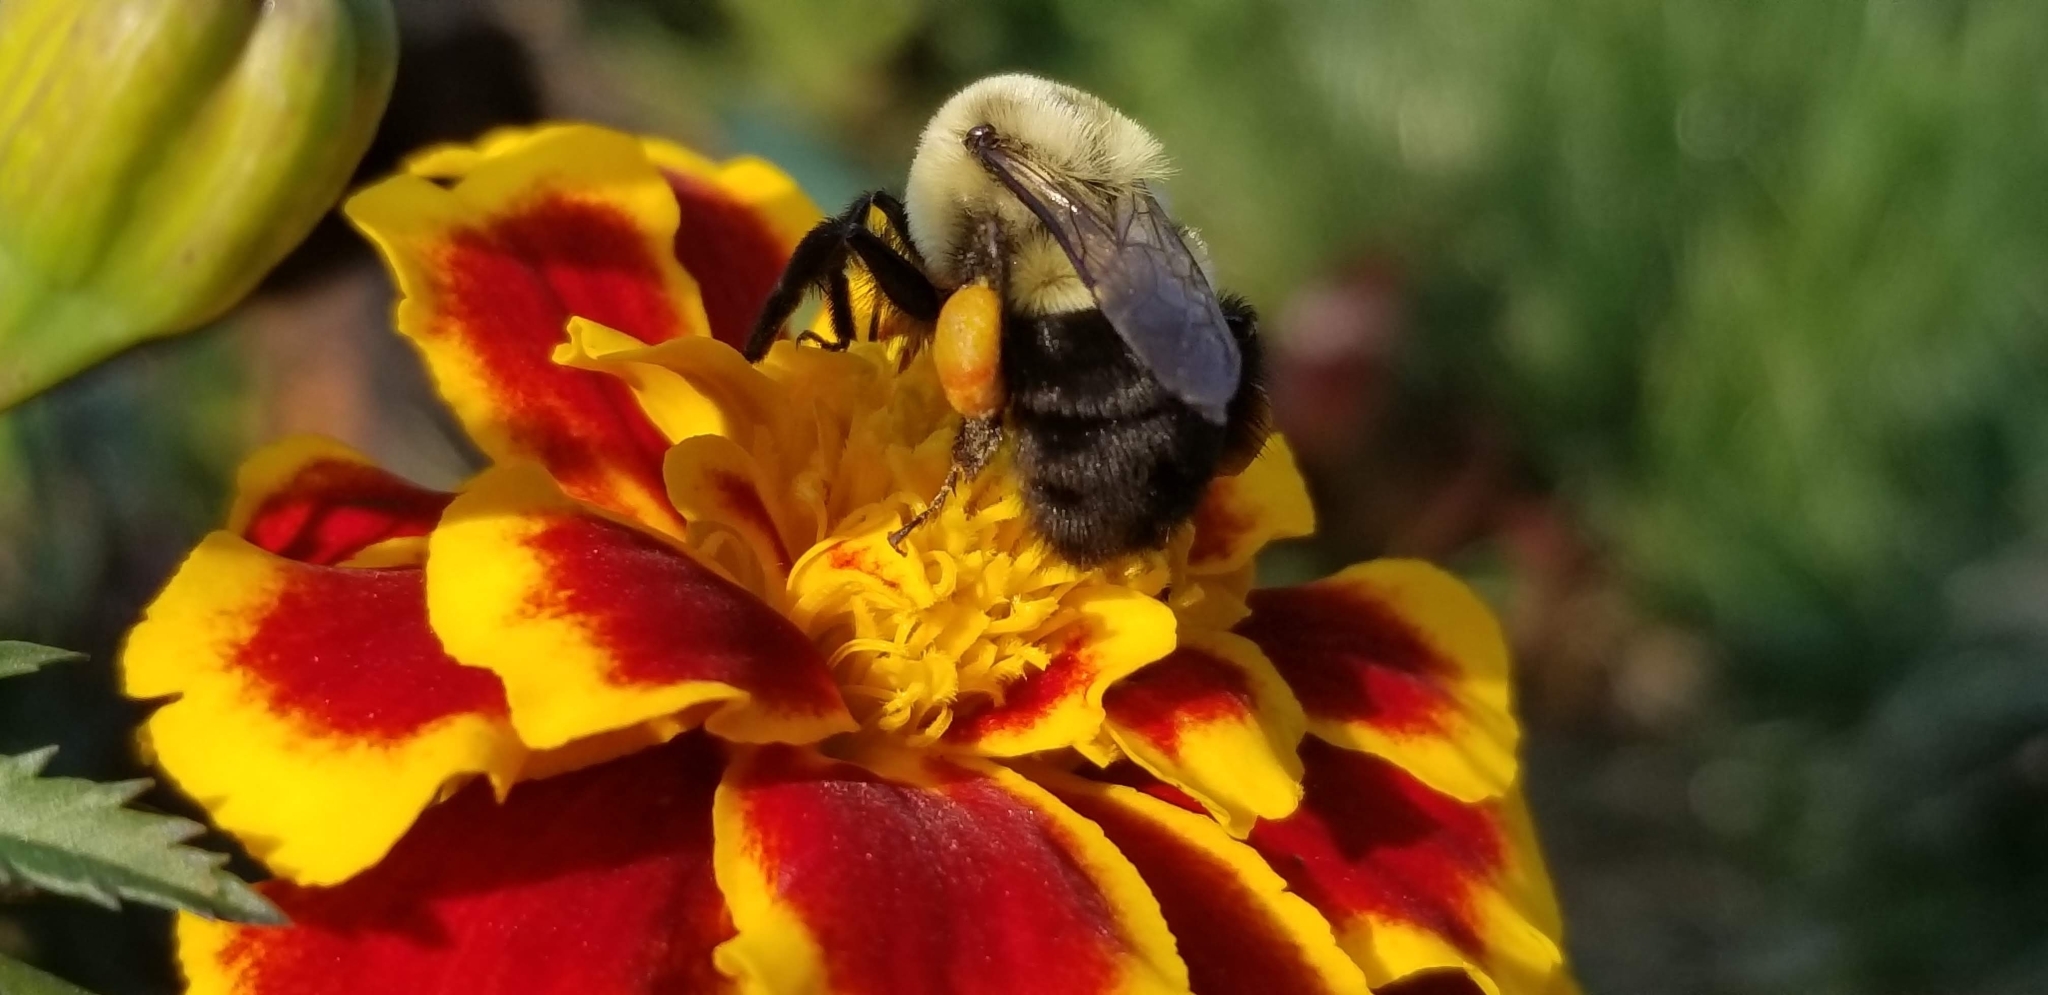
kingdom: Animalia
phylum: Arthropoda
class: Insecta
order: Hymenoptera
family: Apidae
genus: Bombus
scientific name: Bombus impatiens
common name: Common eastern bumble bee
